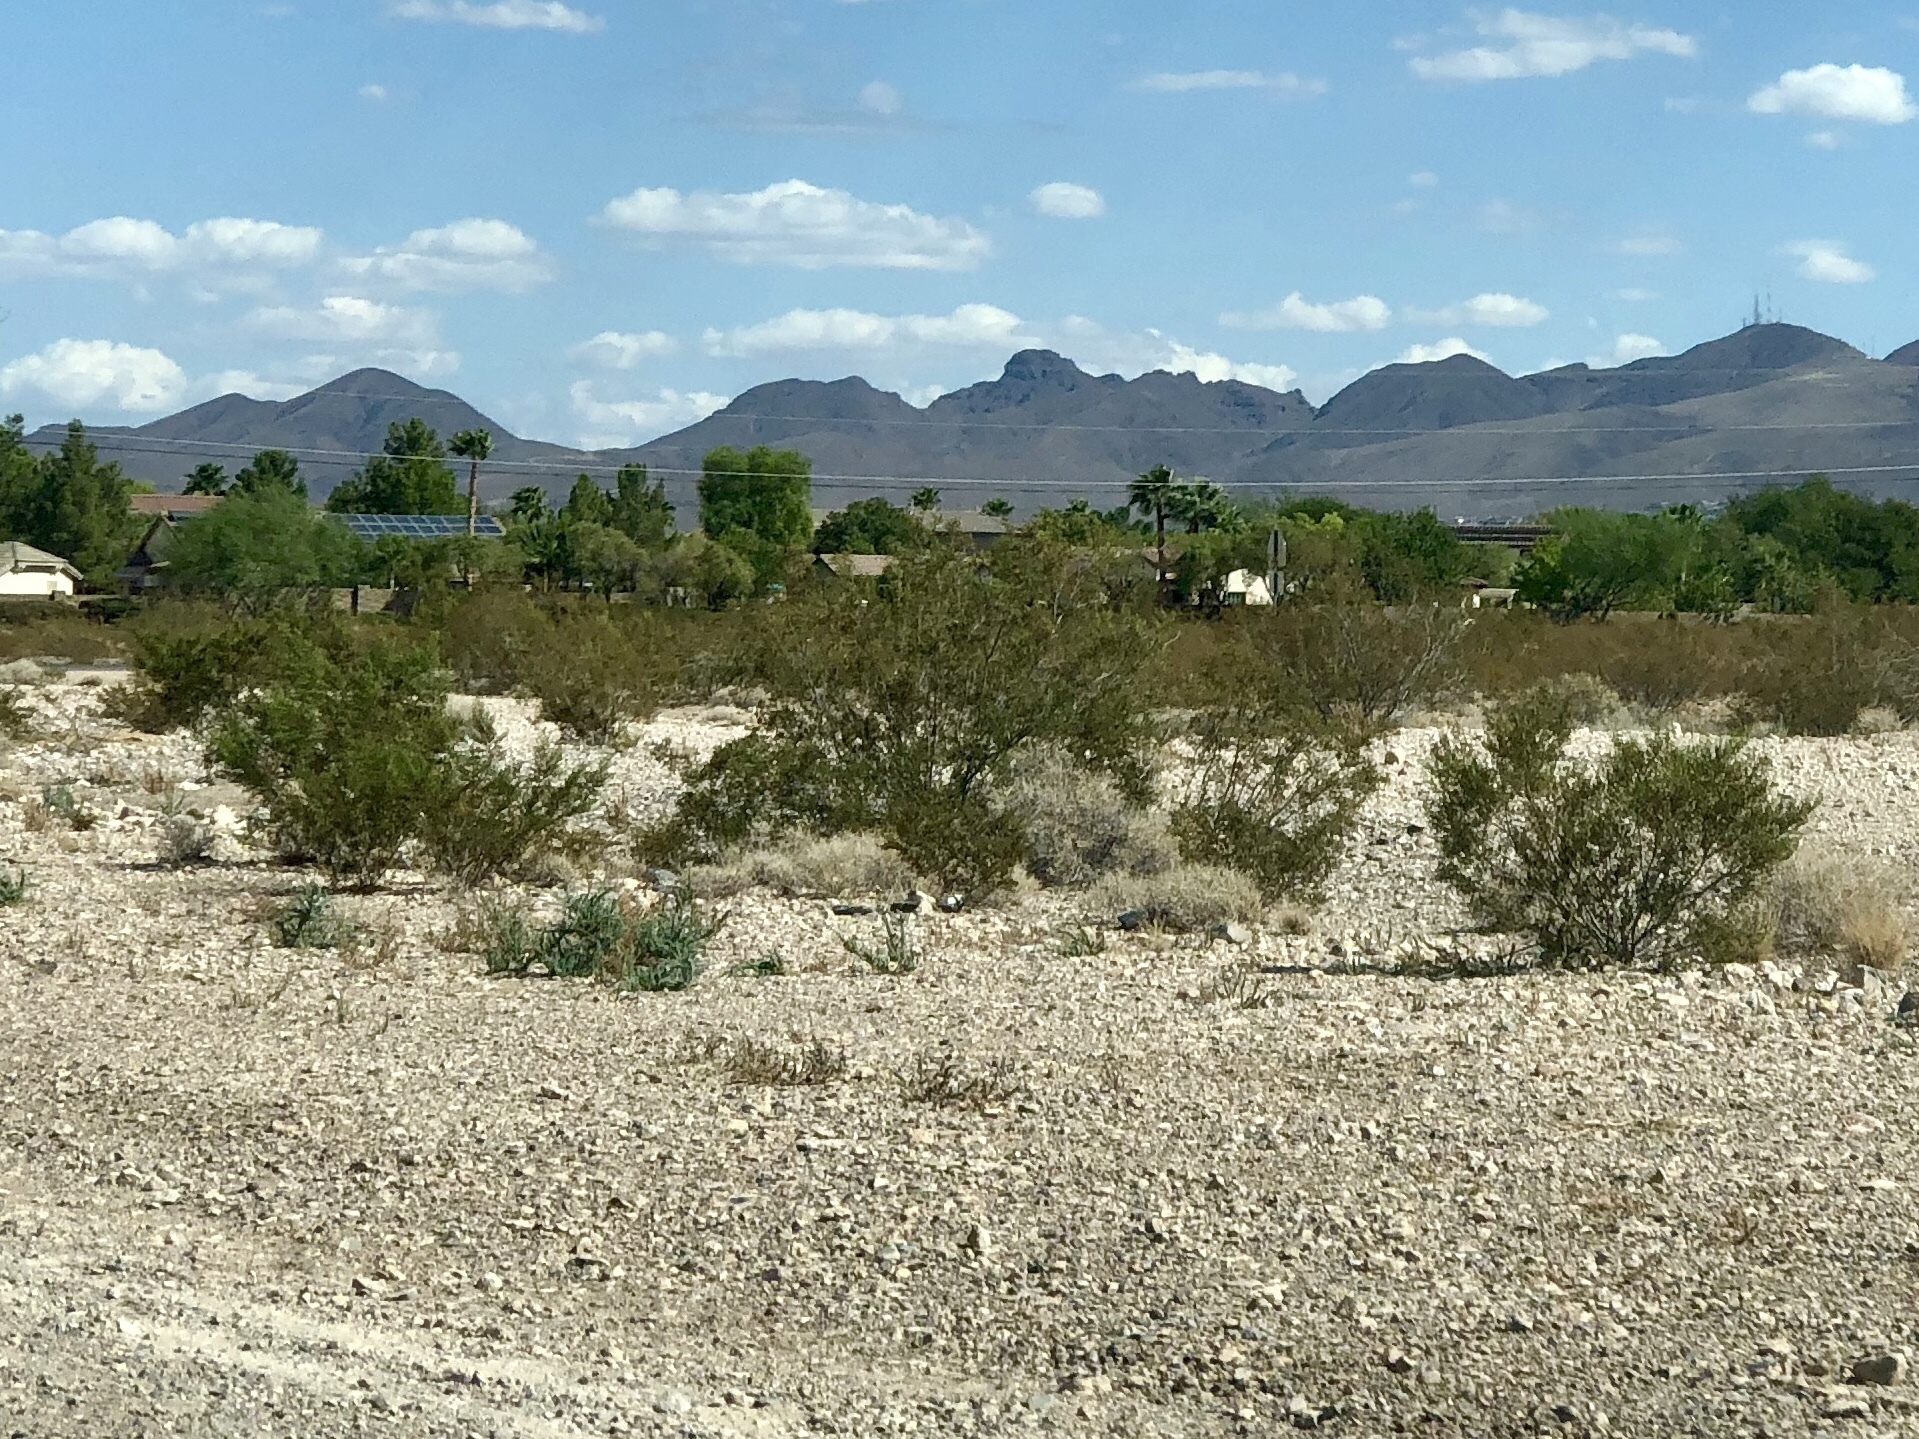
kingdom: Plantae
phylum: Tracheophyta
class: Magnoliopsida
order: Zygophyllales
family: Zygophyllaceae
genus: Larrea
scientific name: Larrea tridentata
